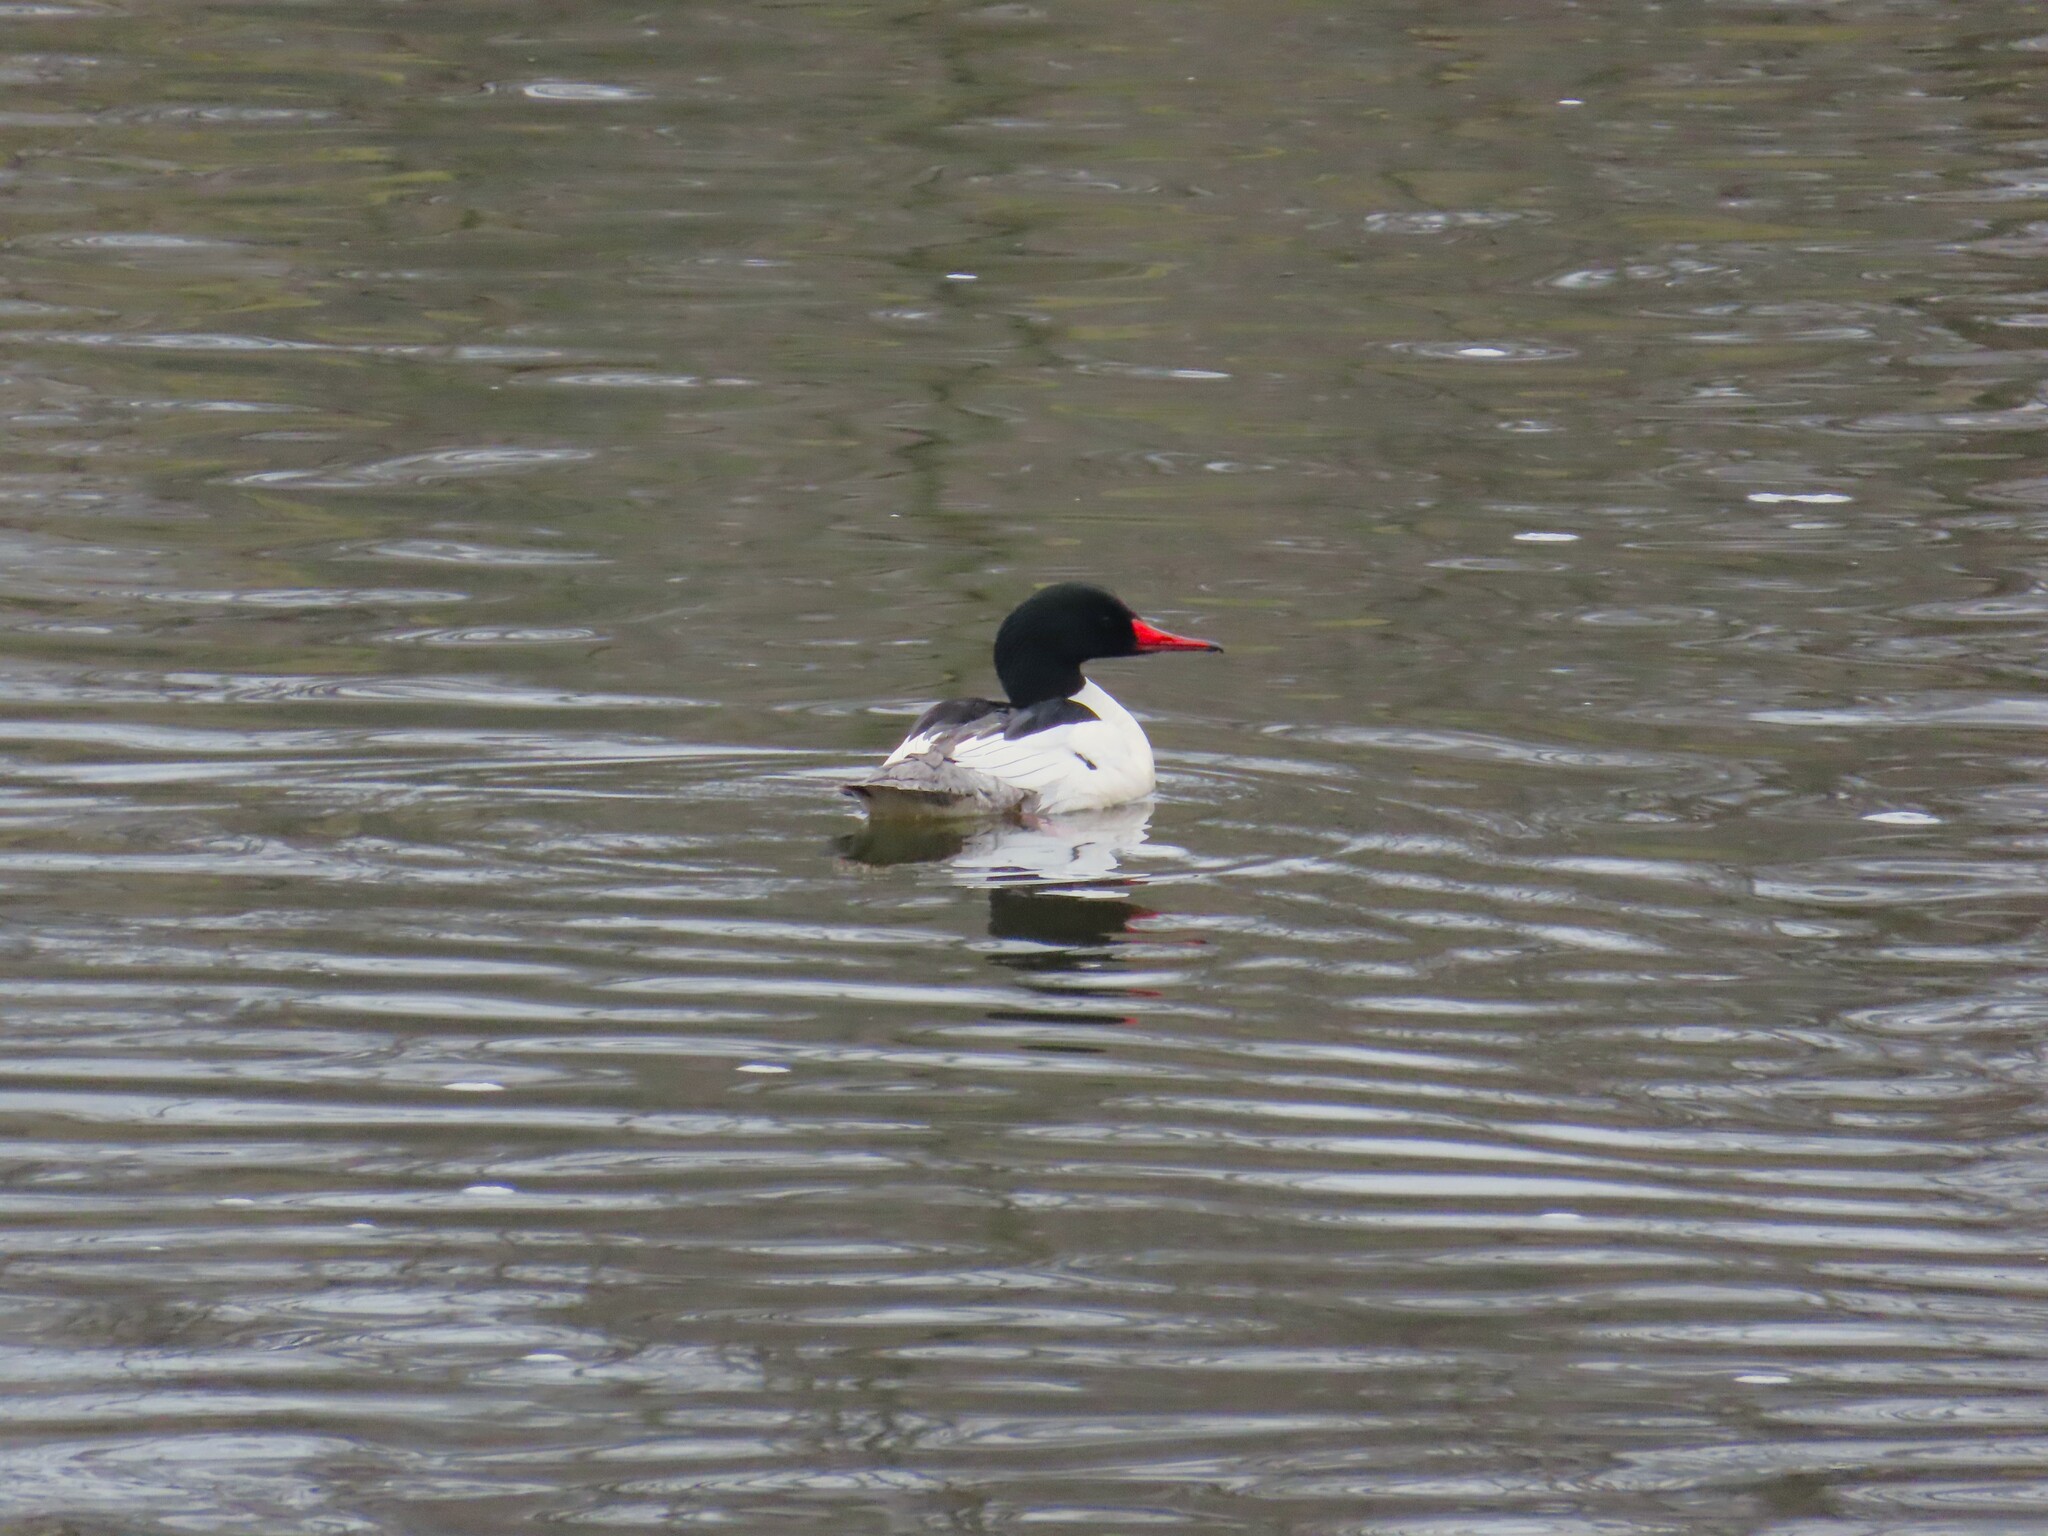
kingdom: Animalia
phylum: Chordata
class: Aves
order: Anseriformes
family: Anatidae
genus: Mergus
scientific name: Mergus merganser
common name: Common merganser
